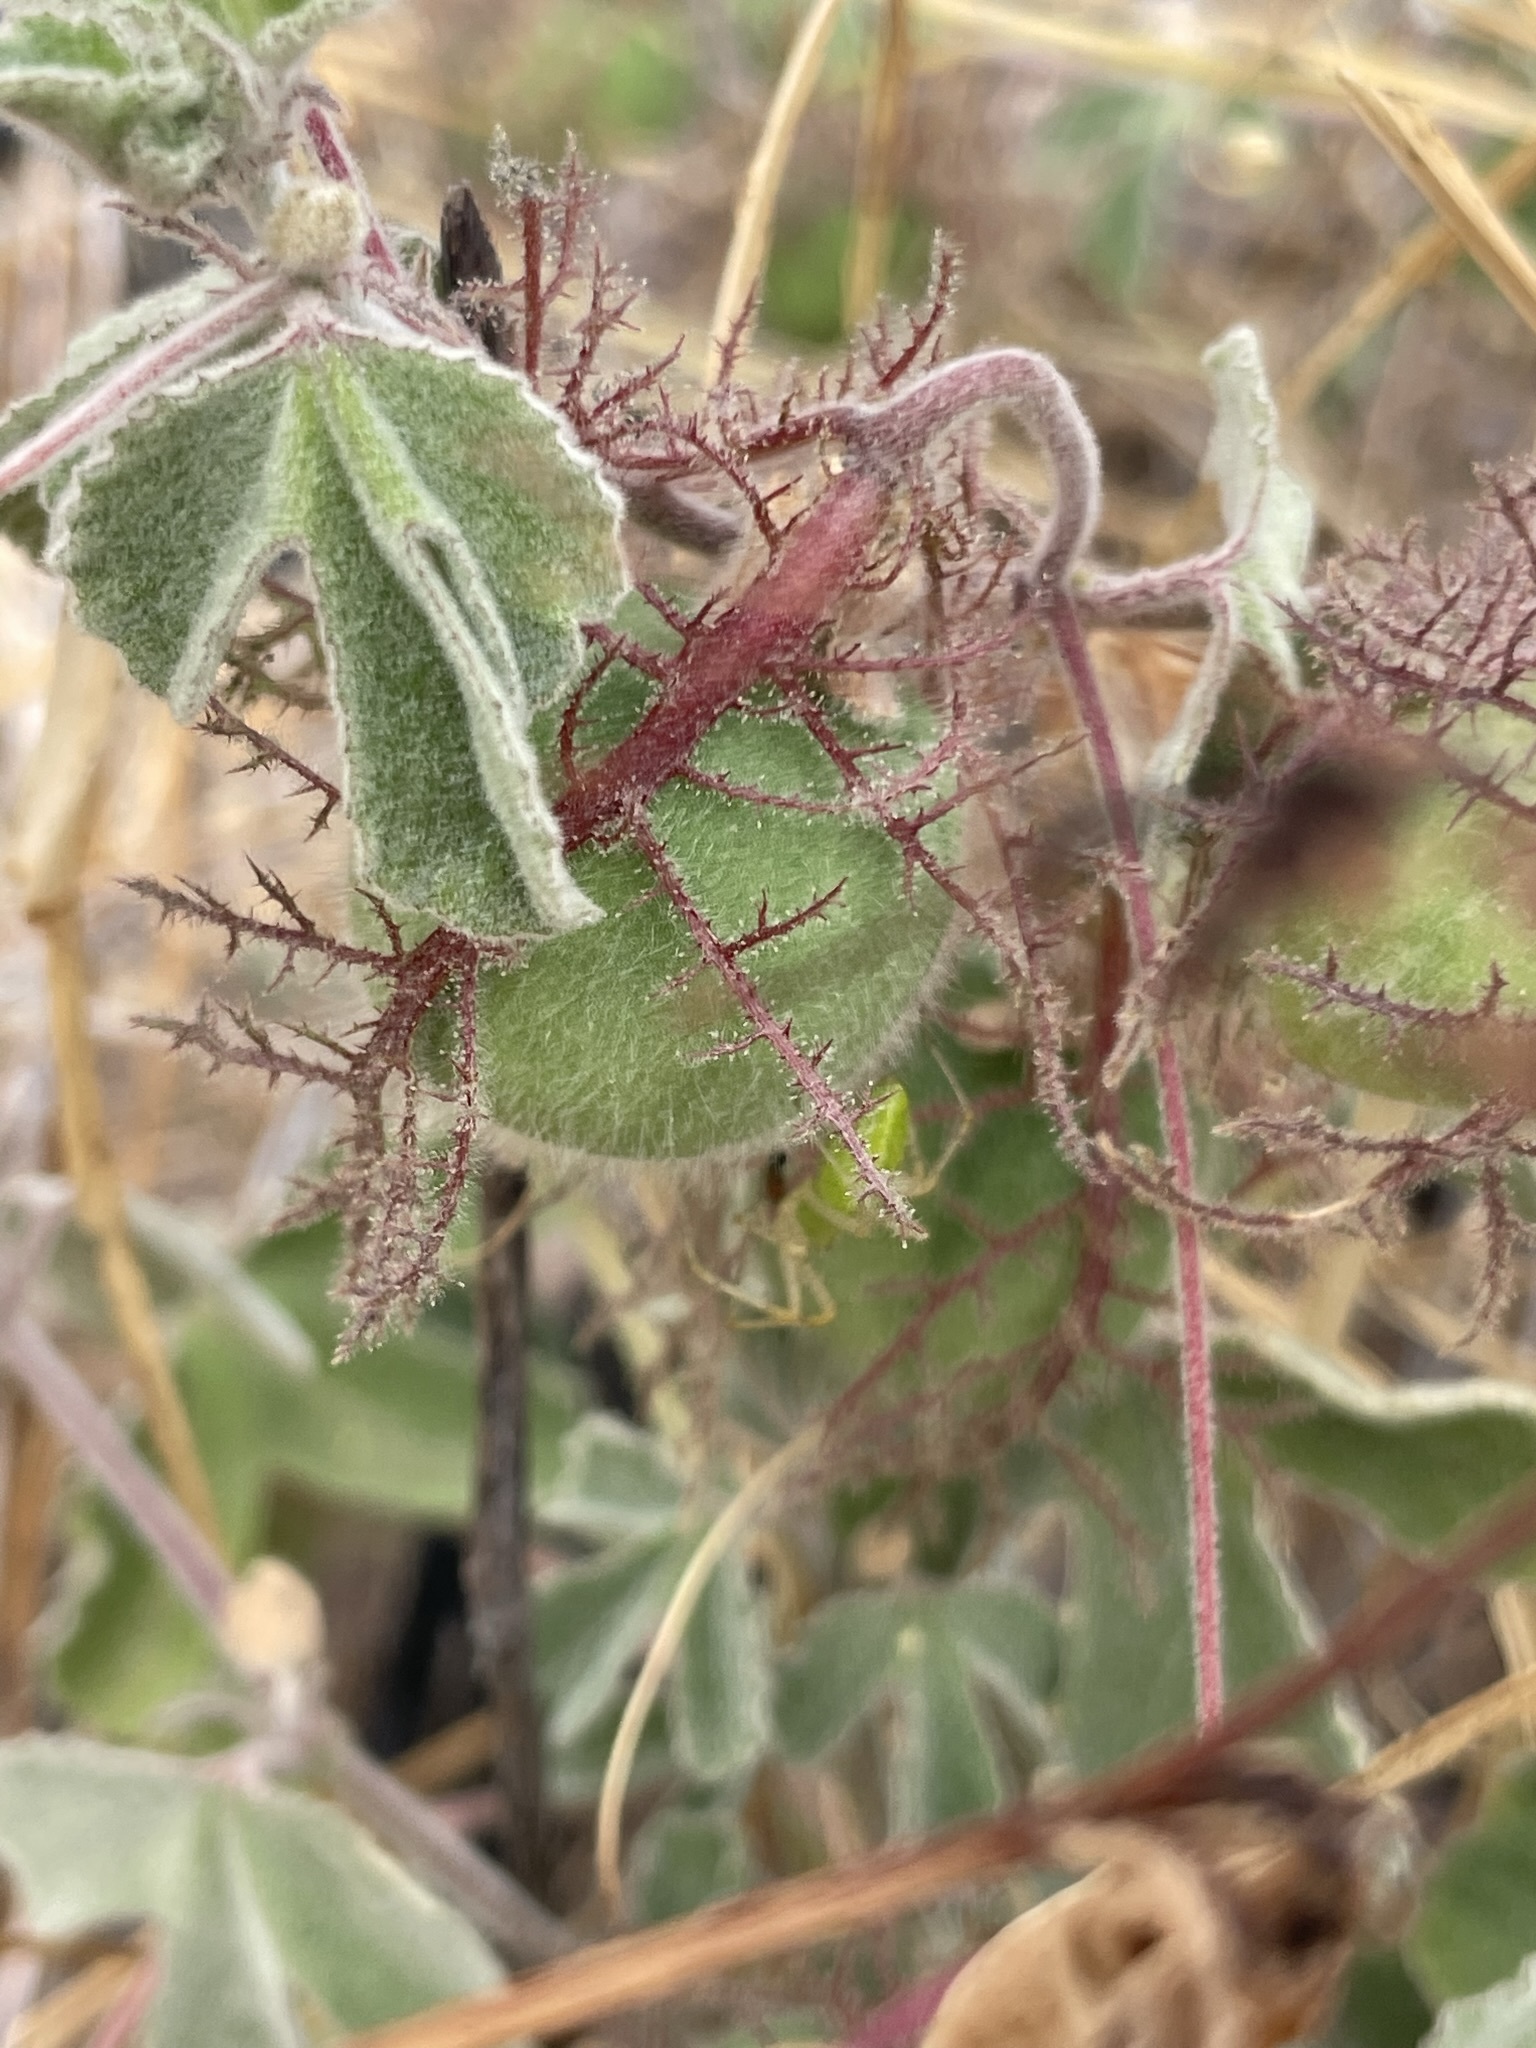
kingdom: Plantae
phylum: Tracheophyta
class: Magnoliopsida
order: Malpighiales
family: Passifloraceae
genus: Passiflora
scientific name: Passiflora palmeri
